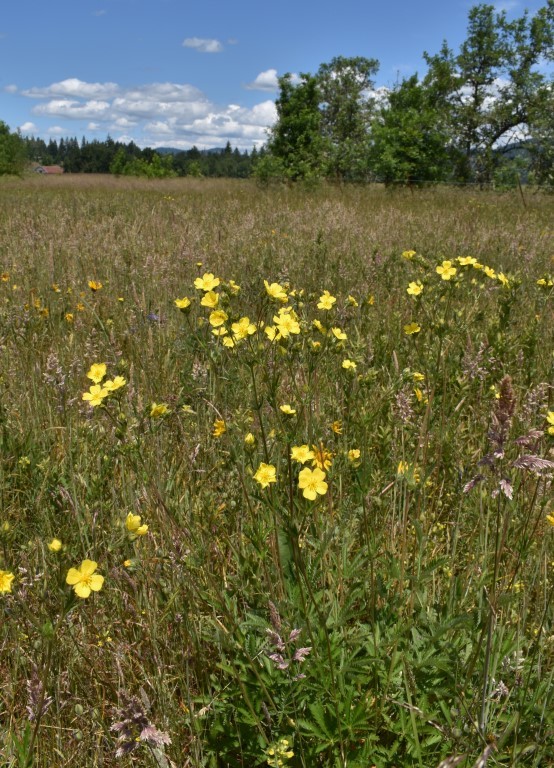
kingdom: Plantae
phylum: Tracheophyta
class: Magnoliopsida
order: Rosales
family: Rosaceae
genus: Potentilla
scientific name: Potentilla gracilis
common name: Graceful cinquefoil
